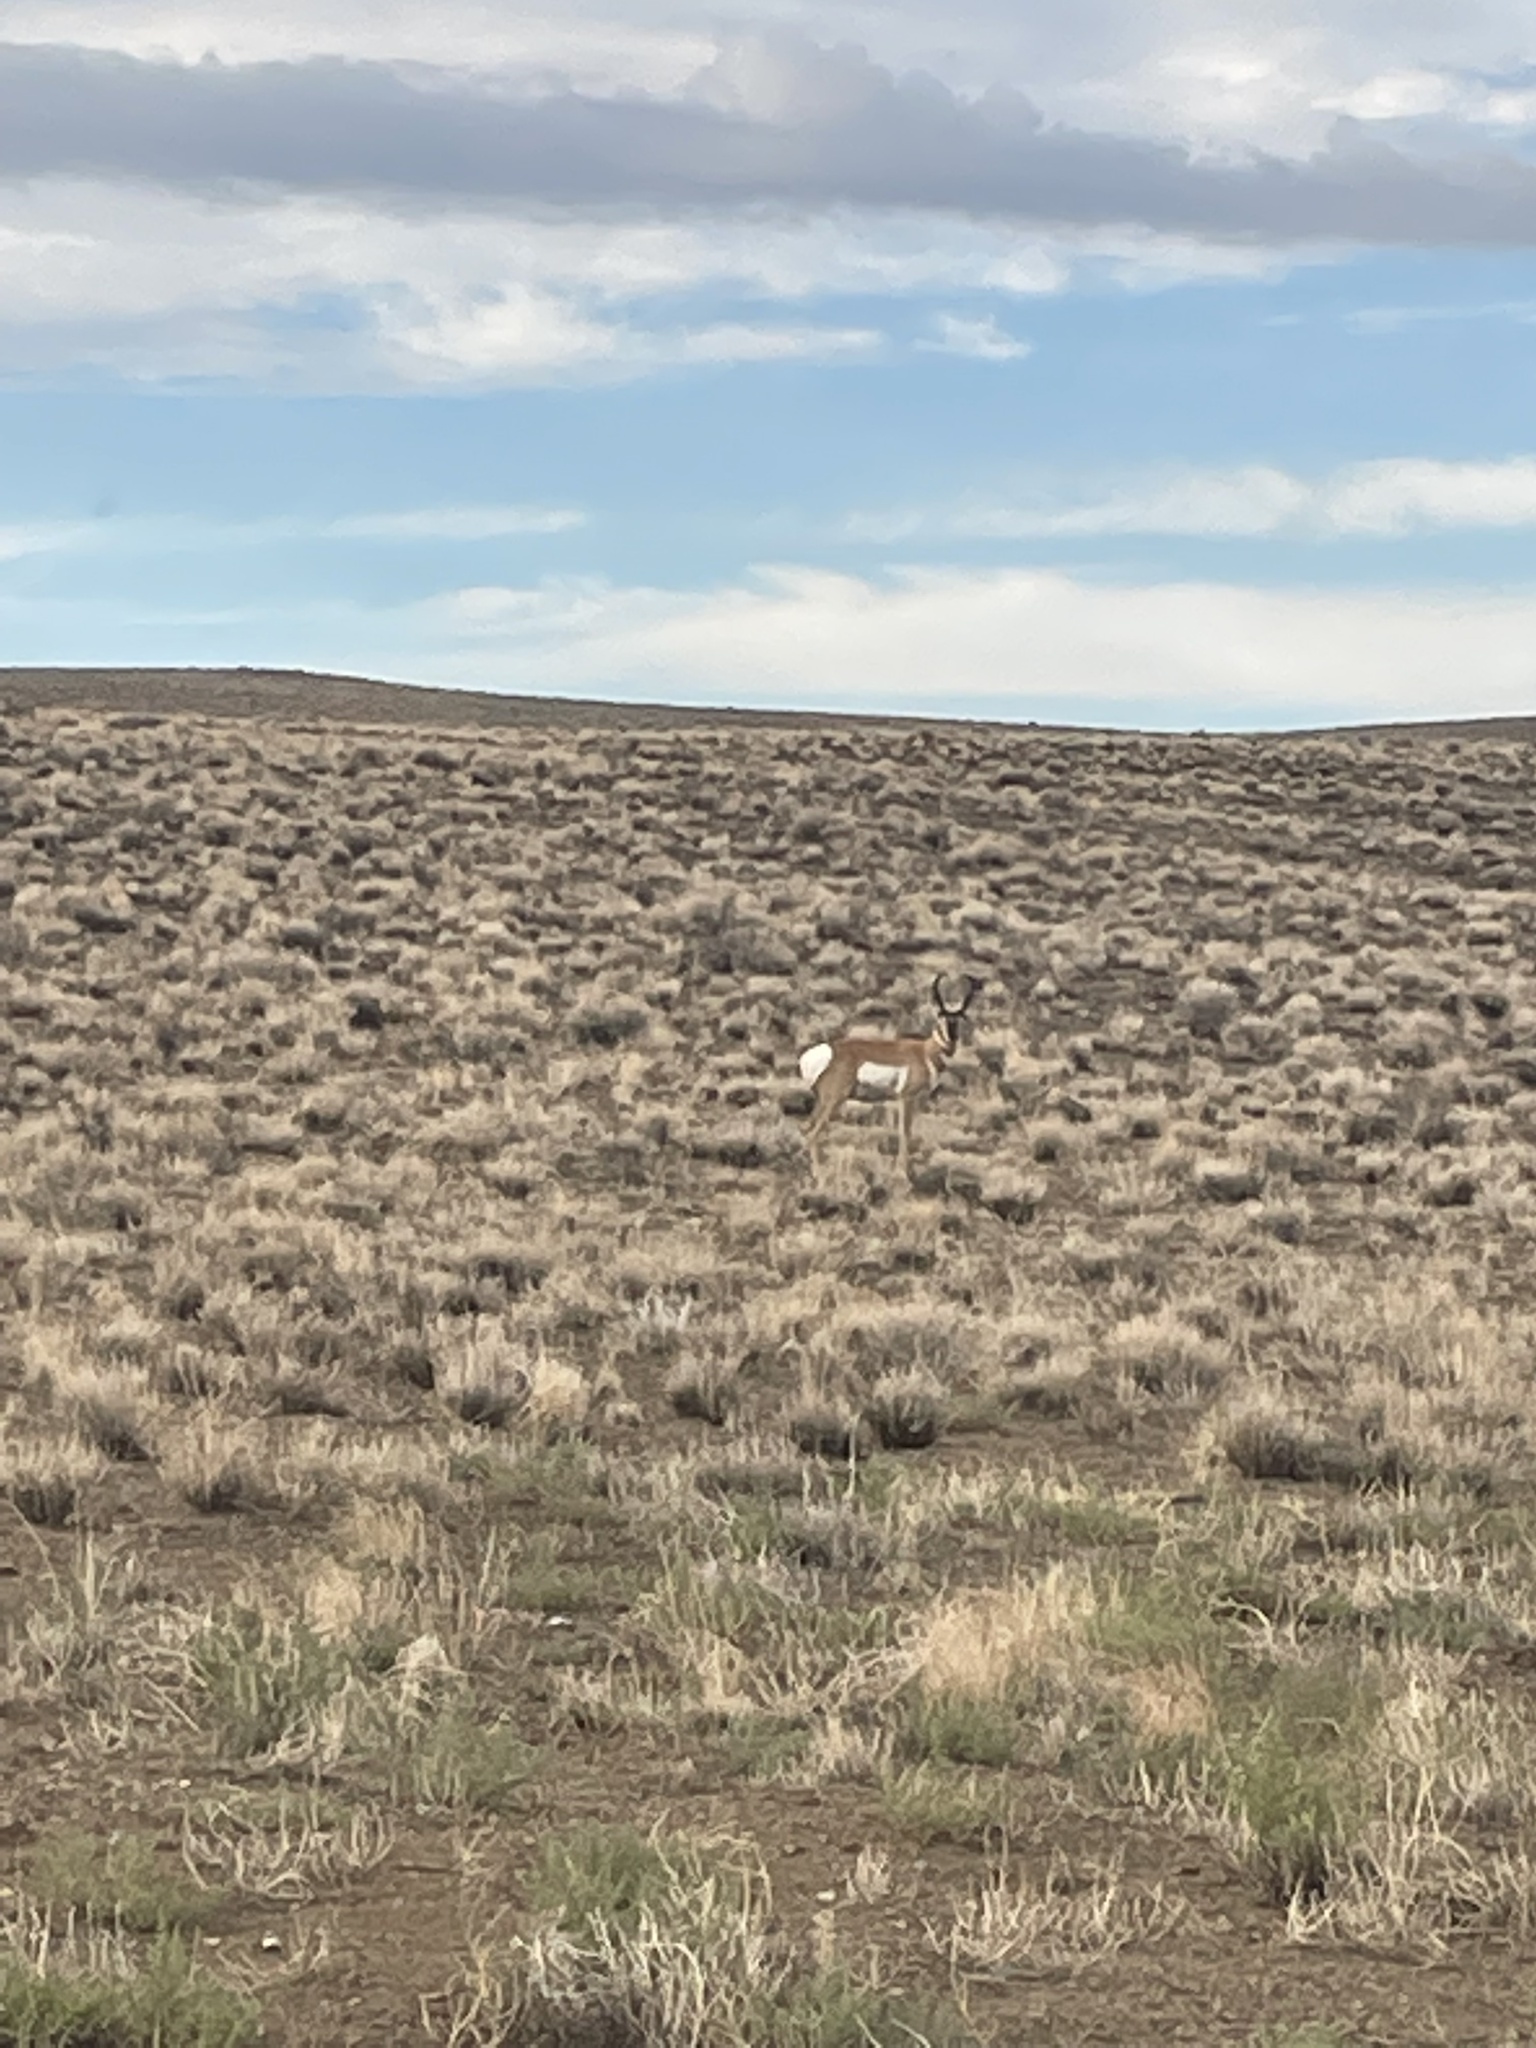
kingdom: Animalia
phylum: Chordata
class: Mammalia
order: Artiodactyla
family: Antilocapridae
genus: Antilocapra
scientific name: Antilocapra americana
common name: Pronghorn
